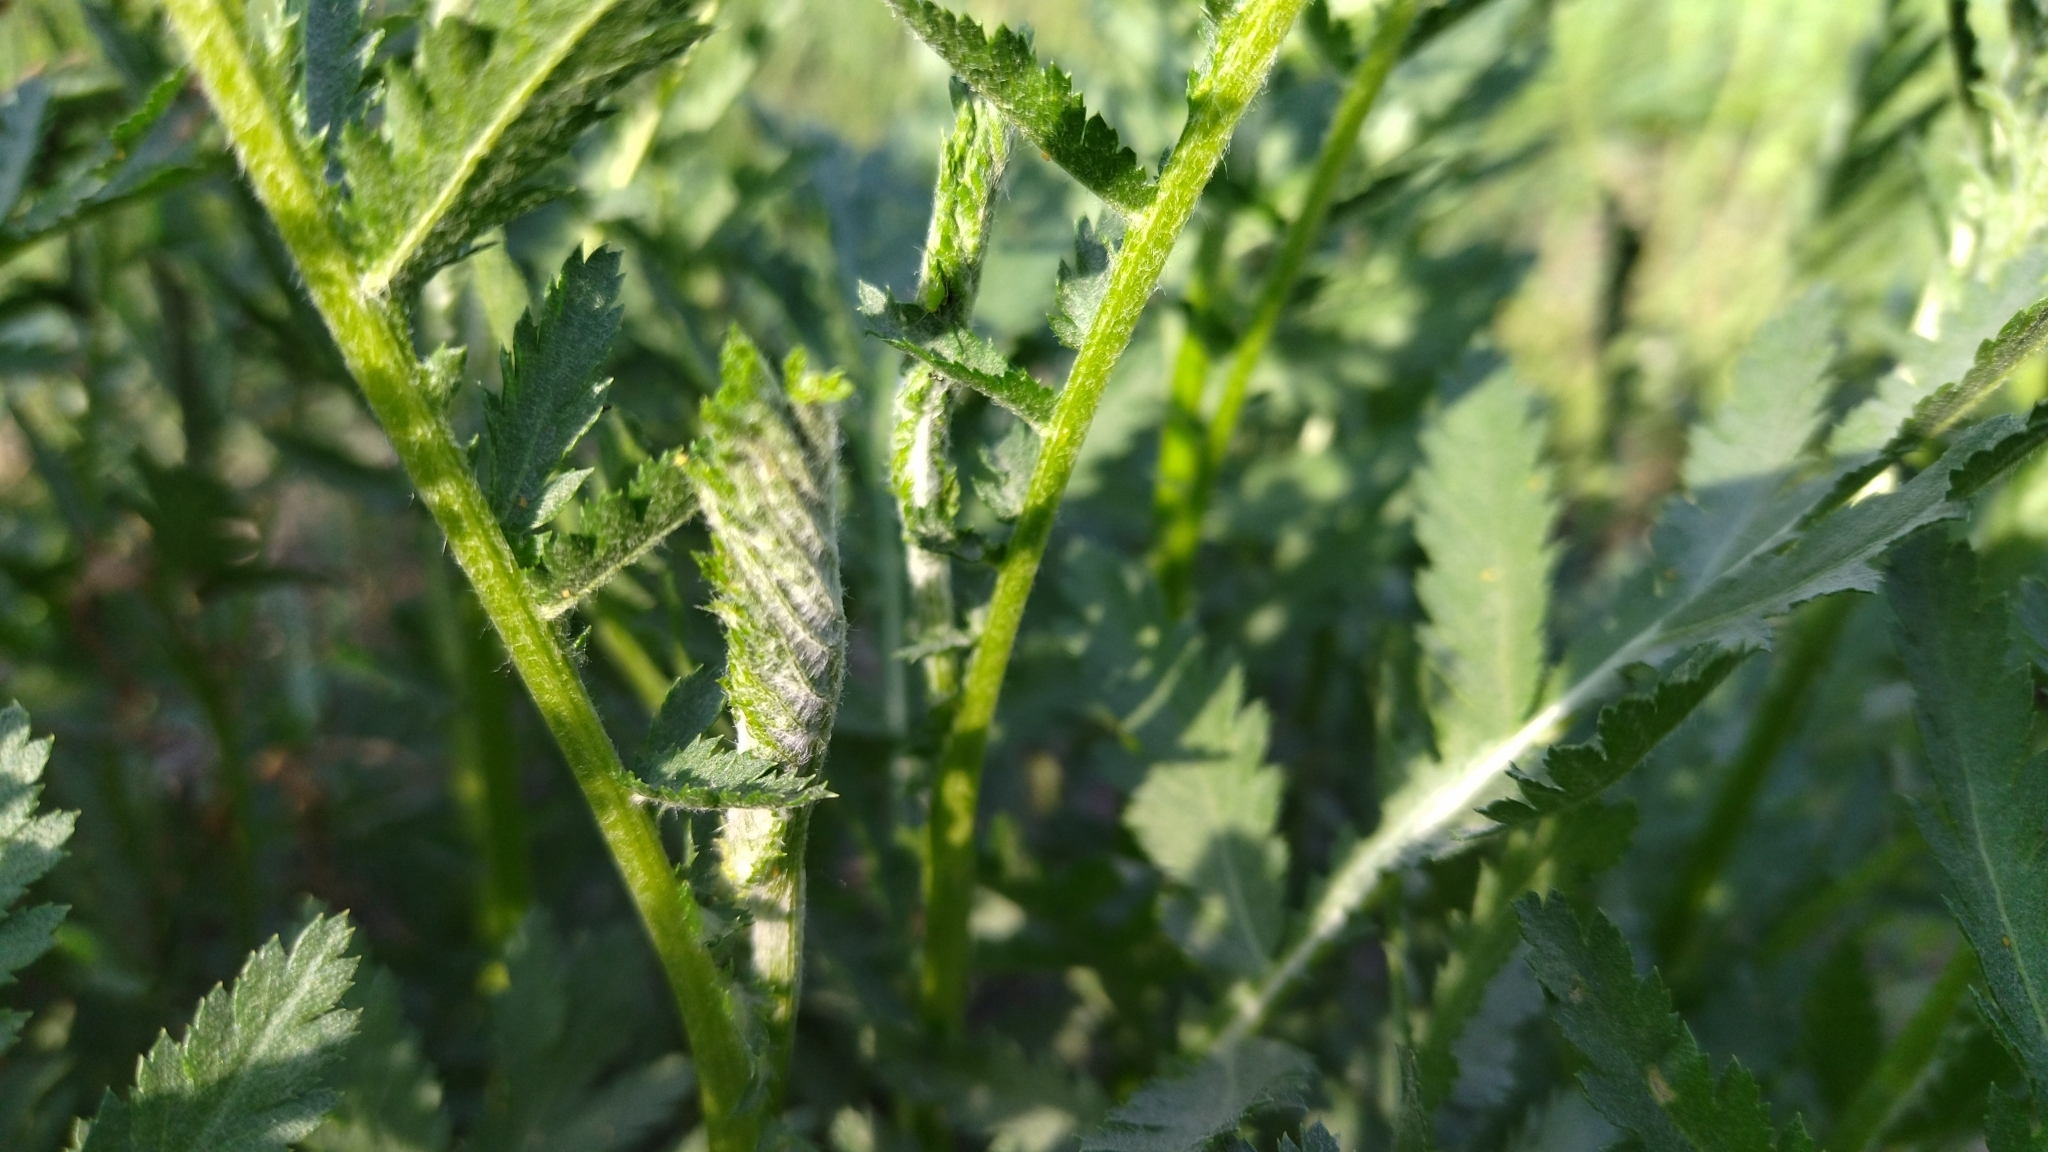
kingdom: Plantae
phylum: Tracheophyta
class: Magnoliopsida
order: Asterales
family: Asteraceae
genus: Tanacetum
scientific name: Tanacetum vulgare
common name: Common tansy
